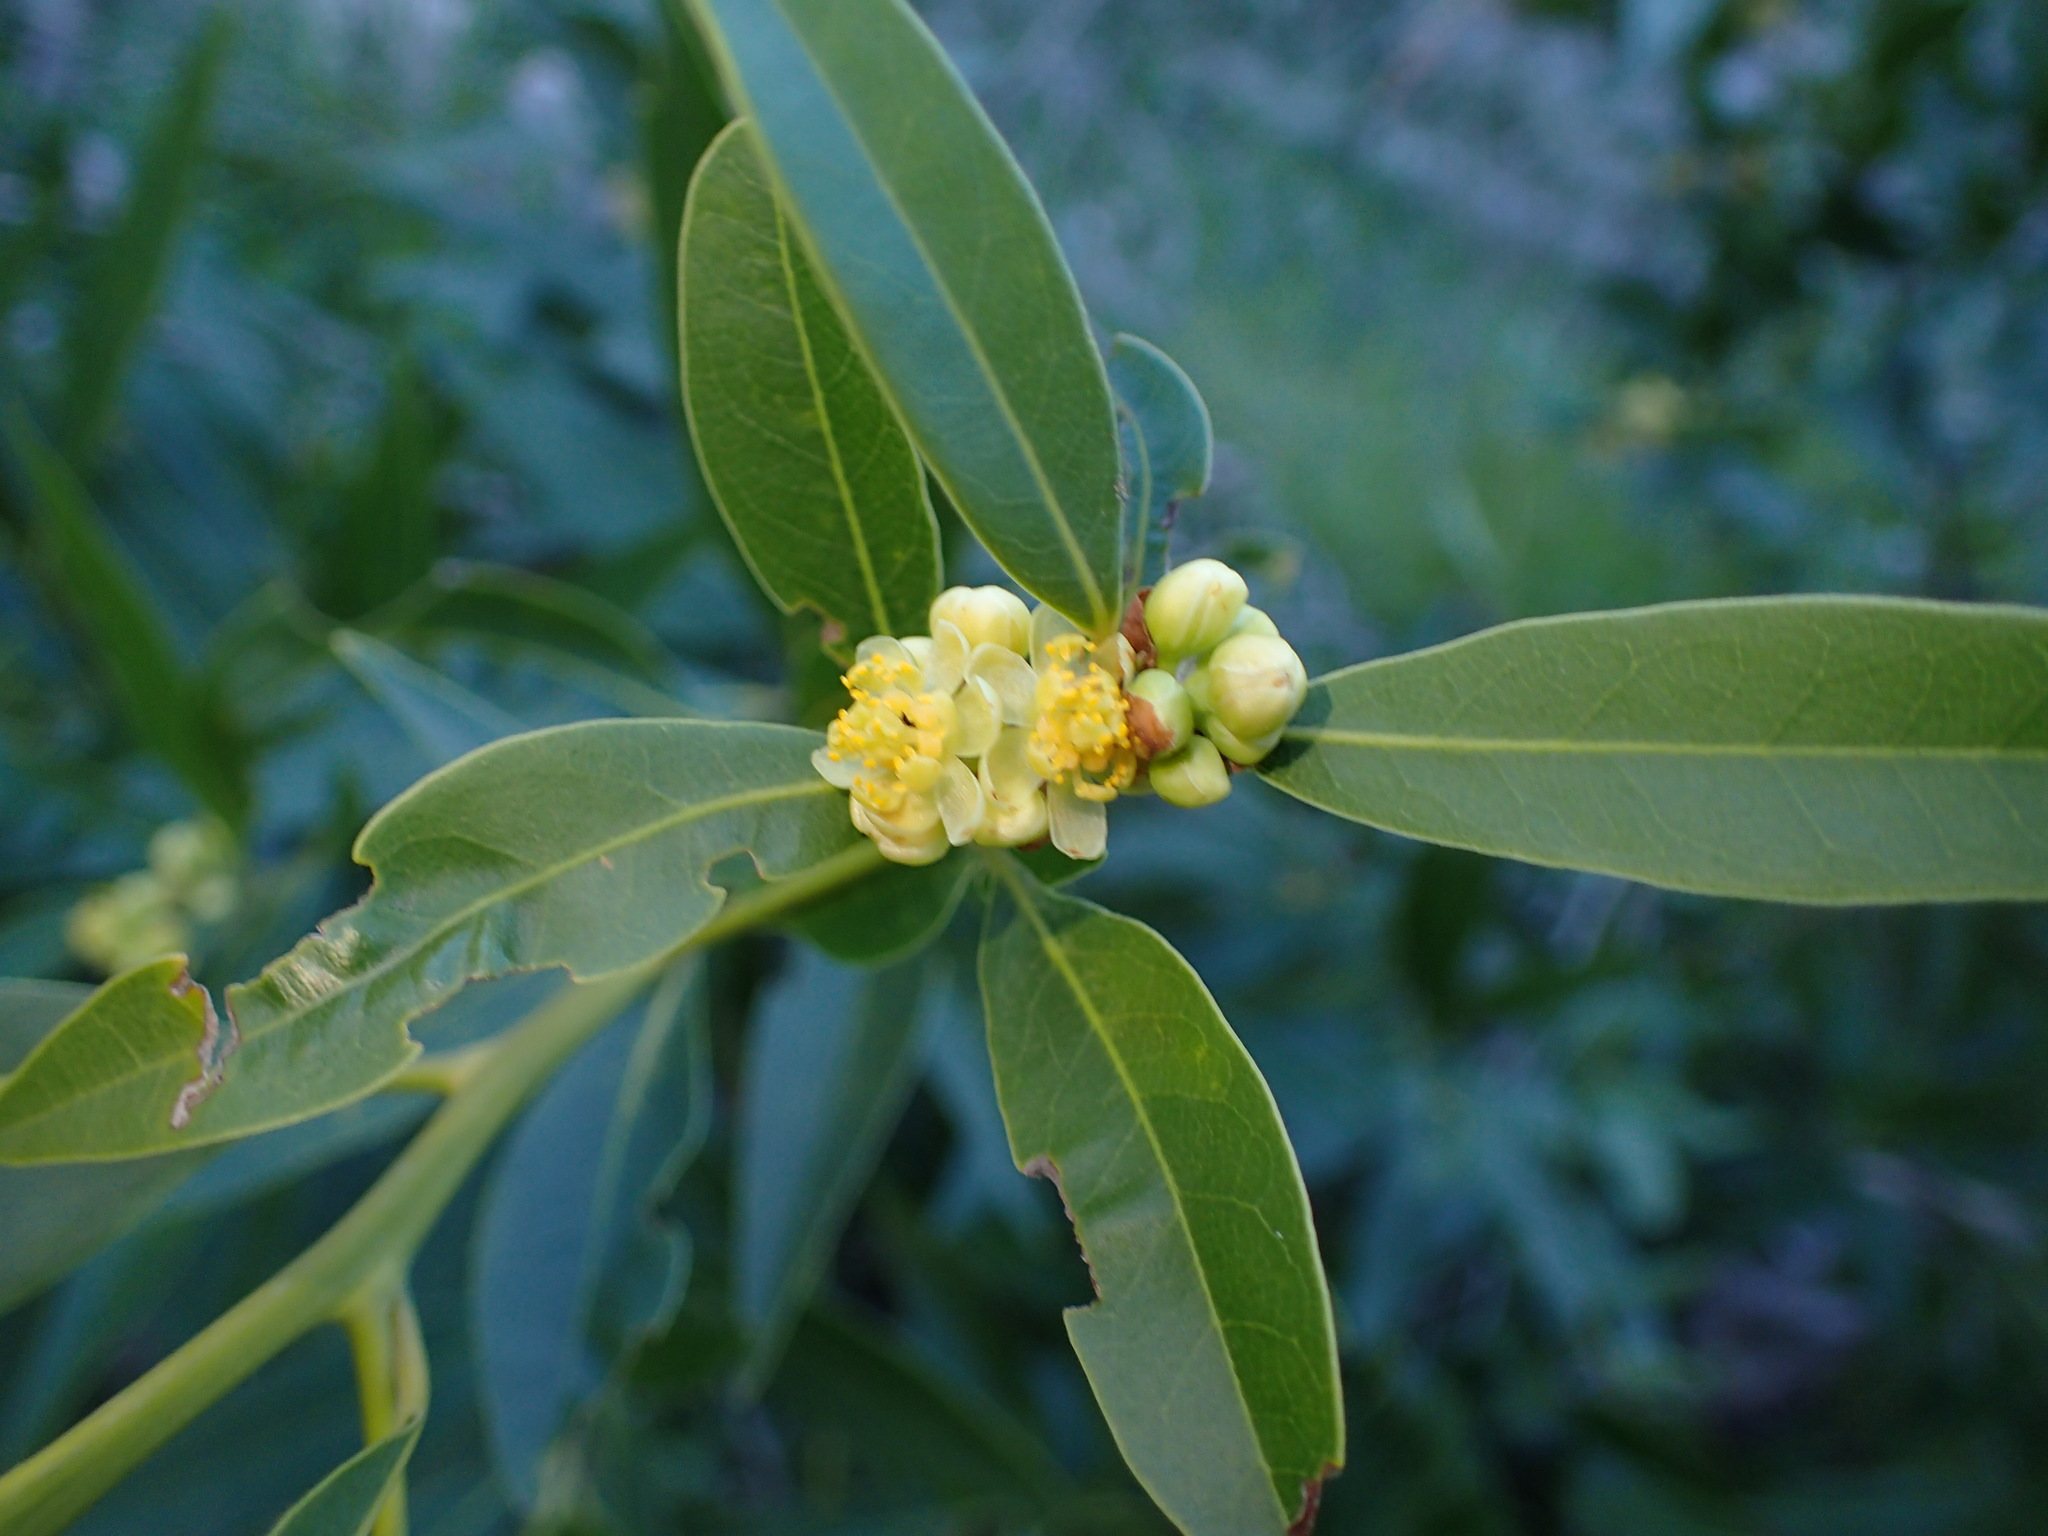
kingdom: Plantae
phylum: Tracheophyta
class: Magnoliopsida
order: Laurales
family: Lauraceae
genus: Umbellularia
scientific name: Umbellularia californica
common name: California bay
